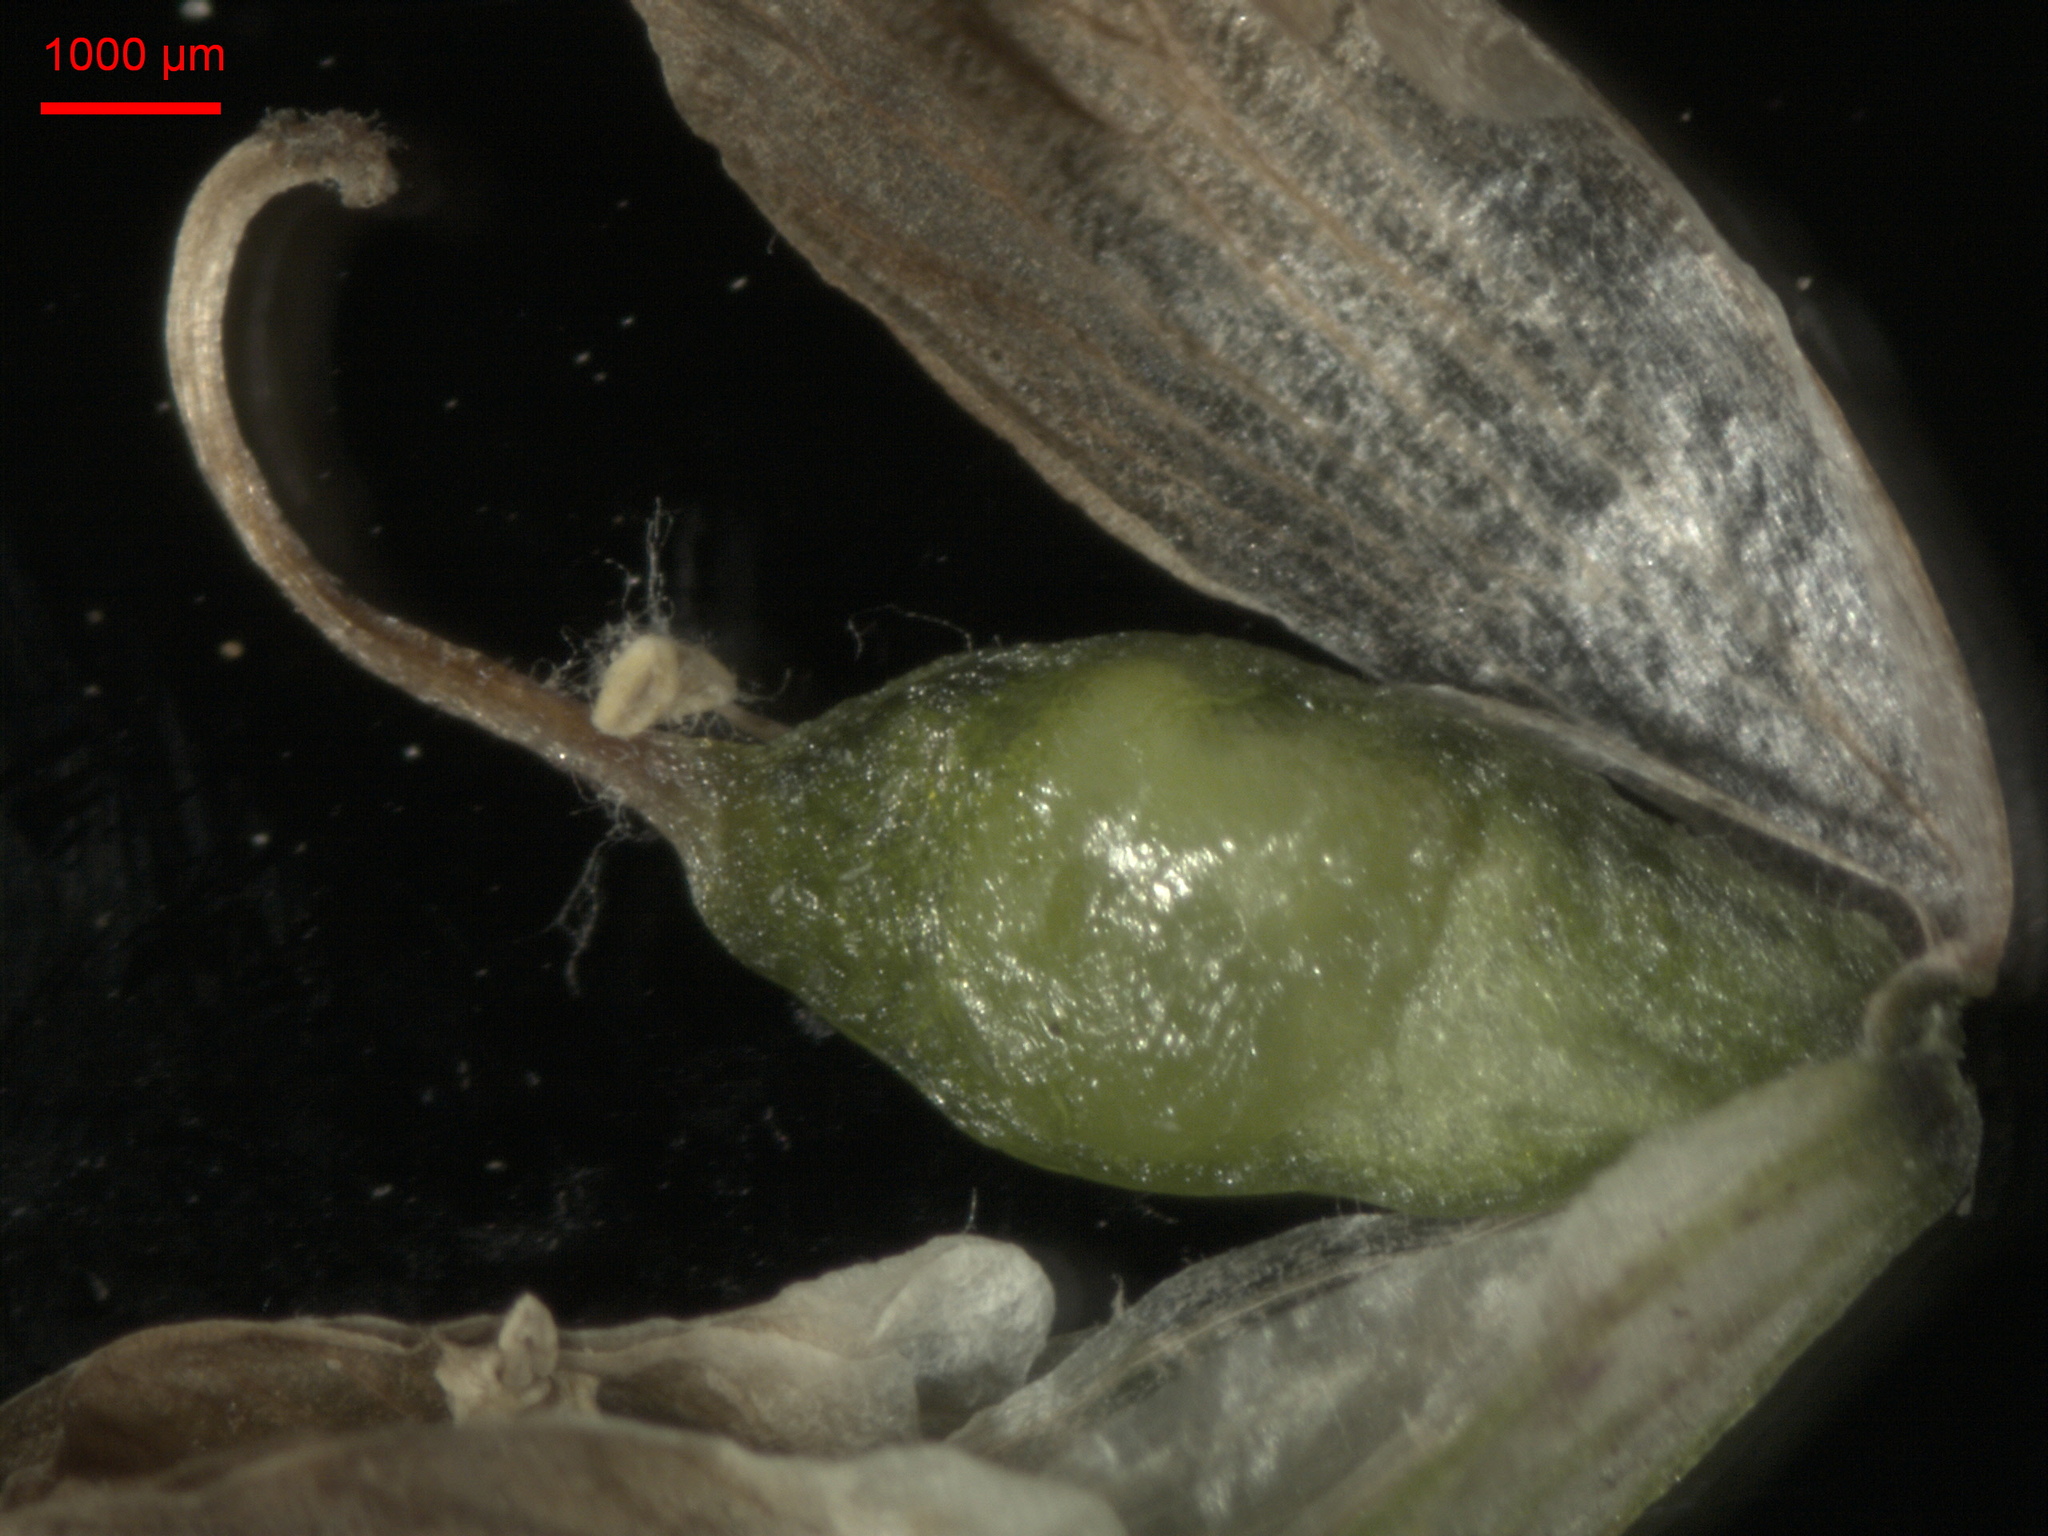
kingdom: Plantae
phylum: Tracheophyta
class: Magnoliopsida
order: Fabales
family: Fabaceae
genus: Trifolium
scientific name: Trifolium repens
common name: White clover
